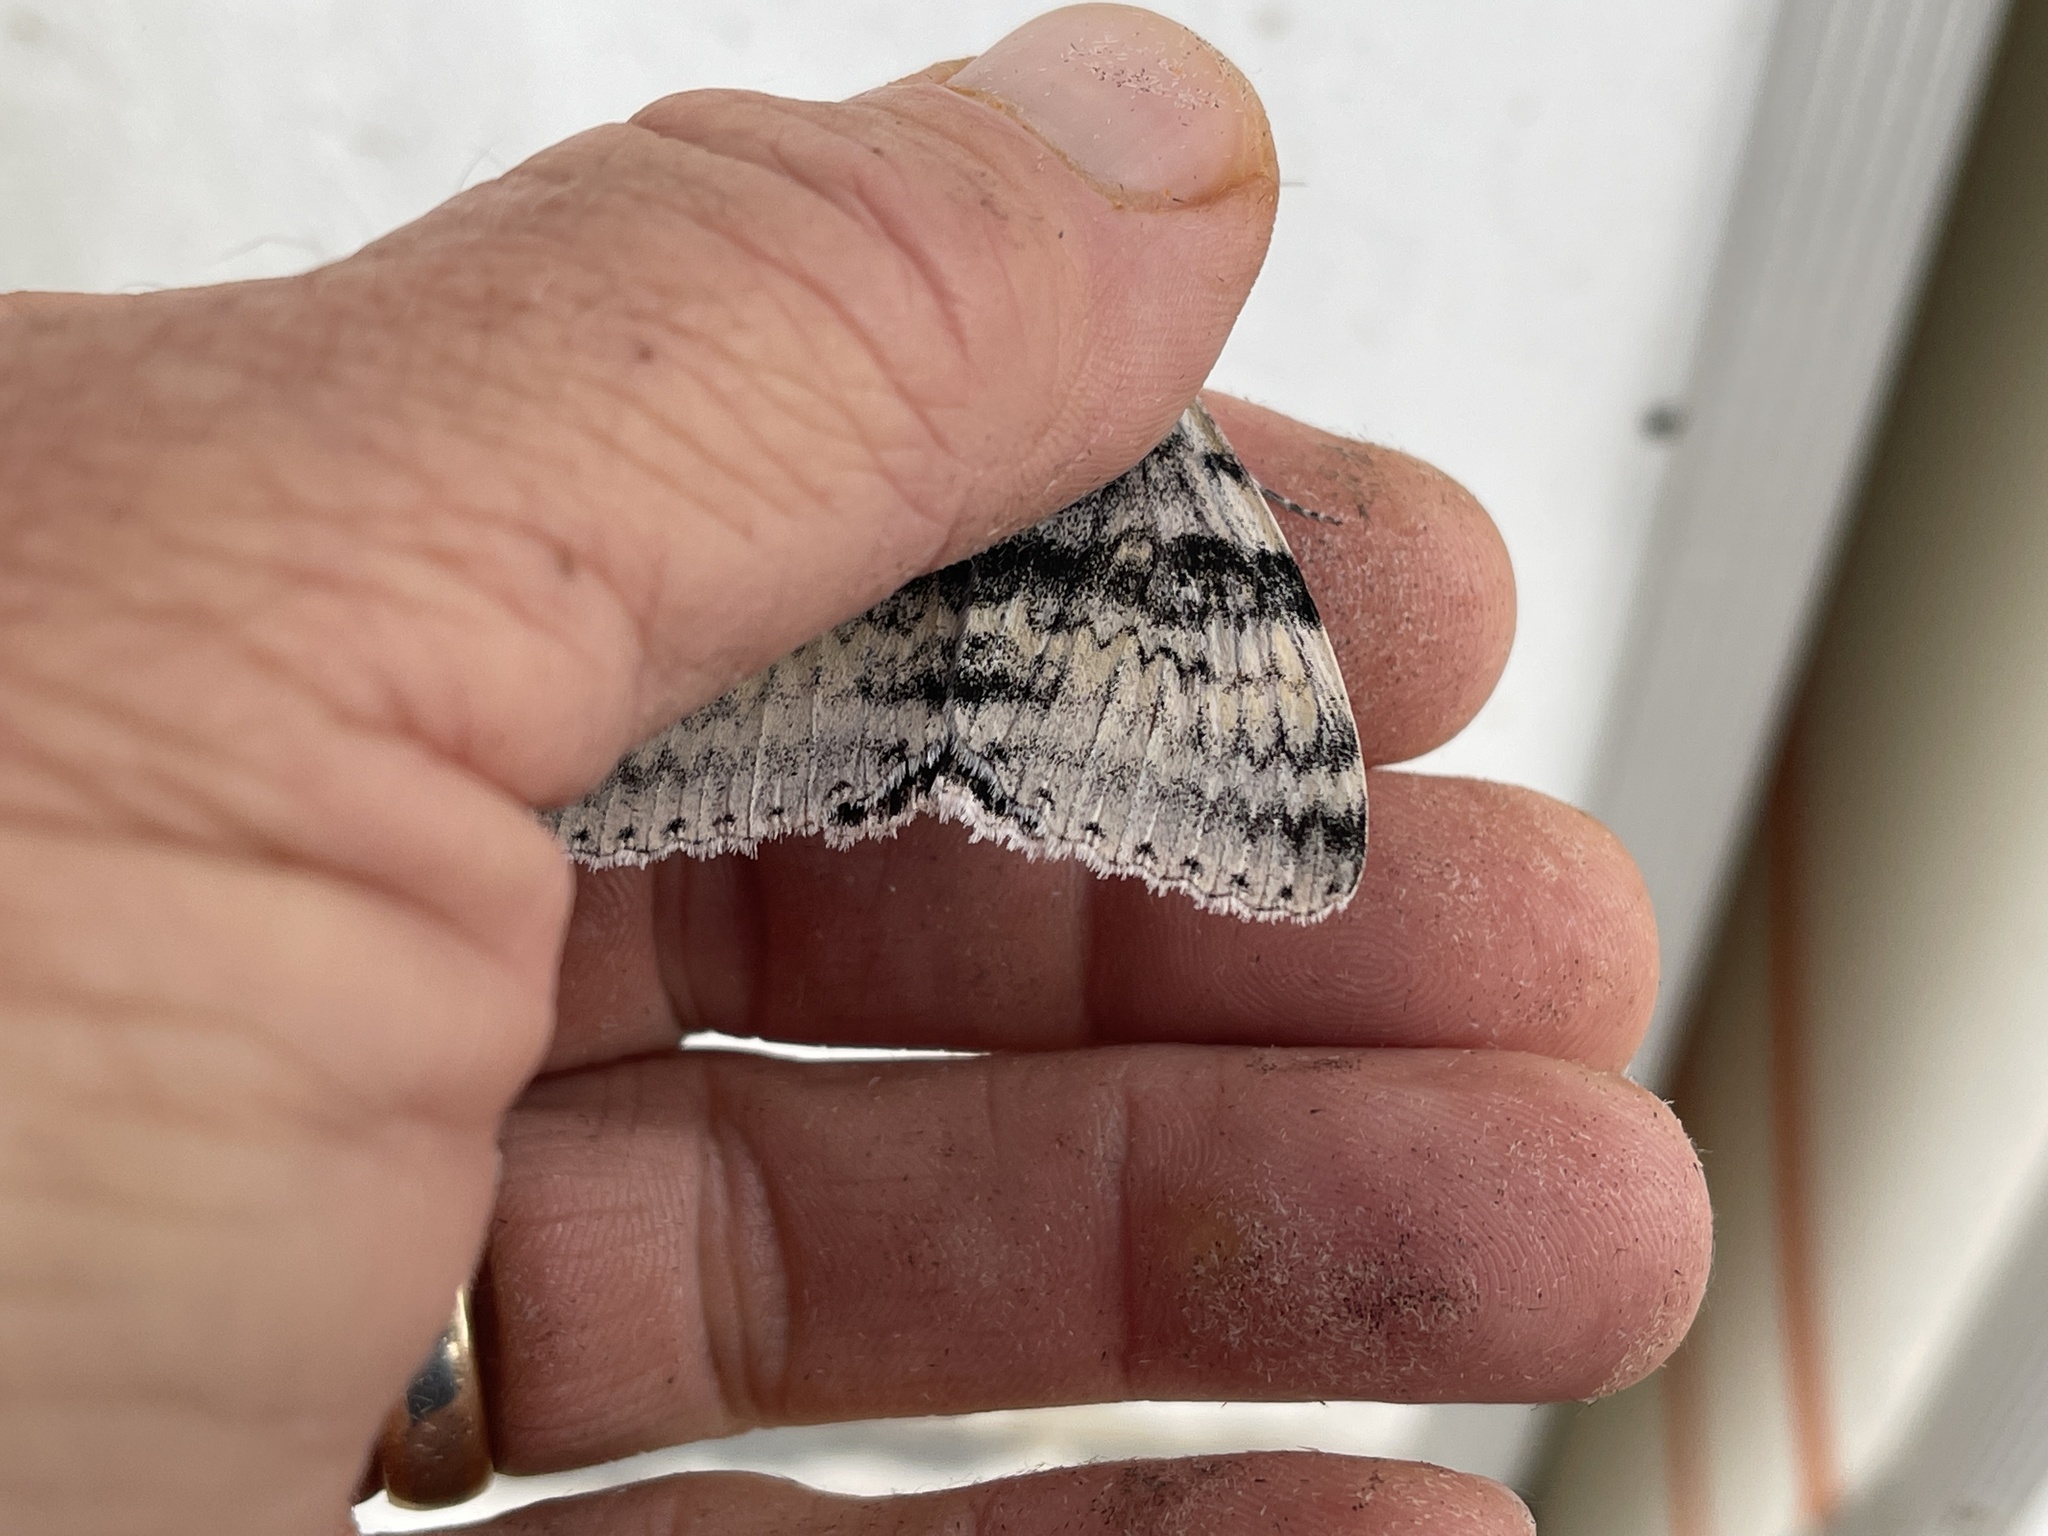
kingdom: Animalia
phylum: Arthropoda
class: Insecta
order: Lepidoptera
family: Erebidae
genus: Catocala
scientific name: Catocala relicta
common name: White underwing
